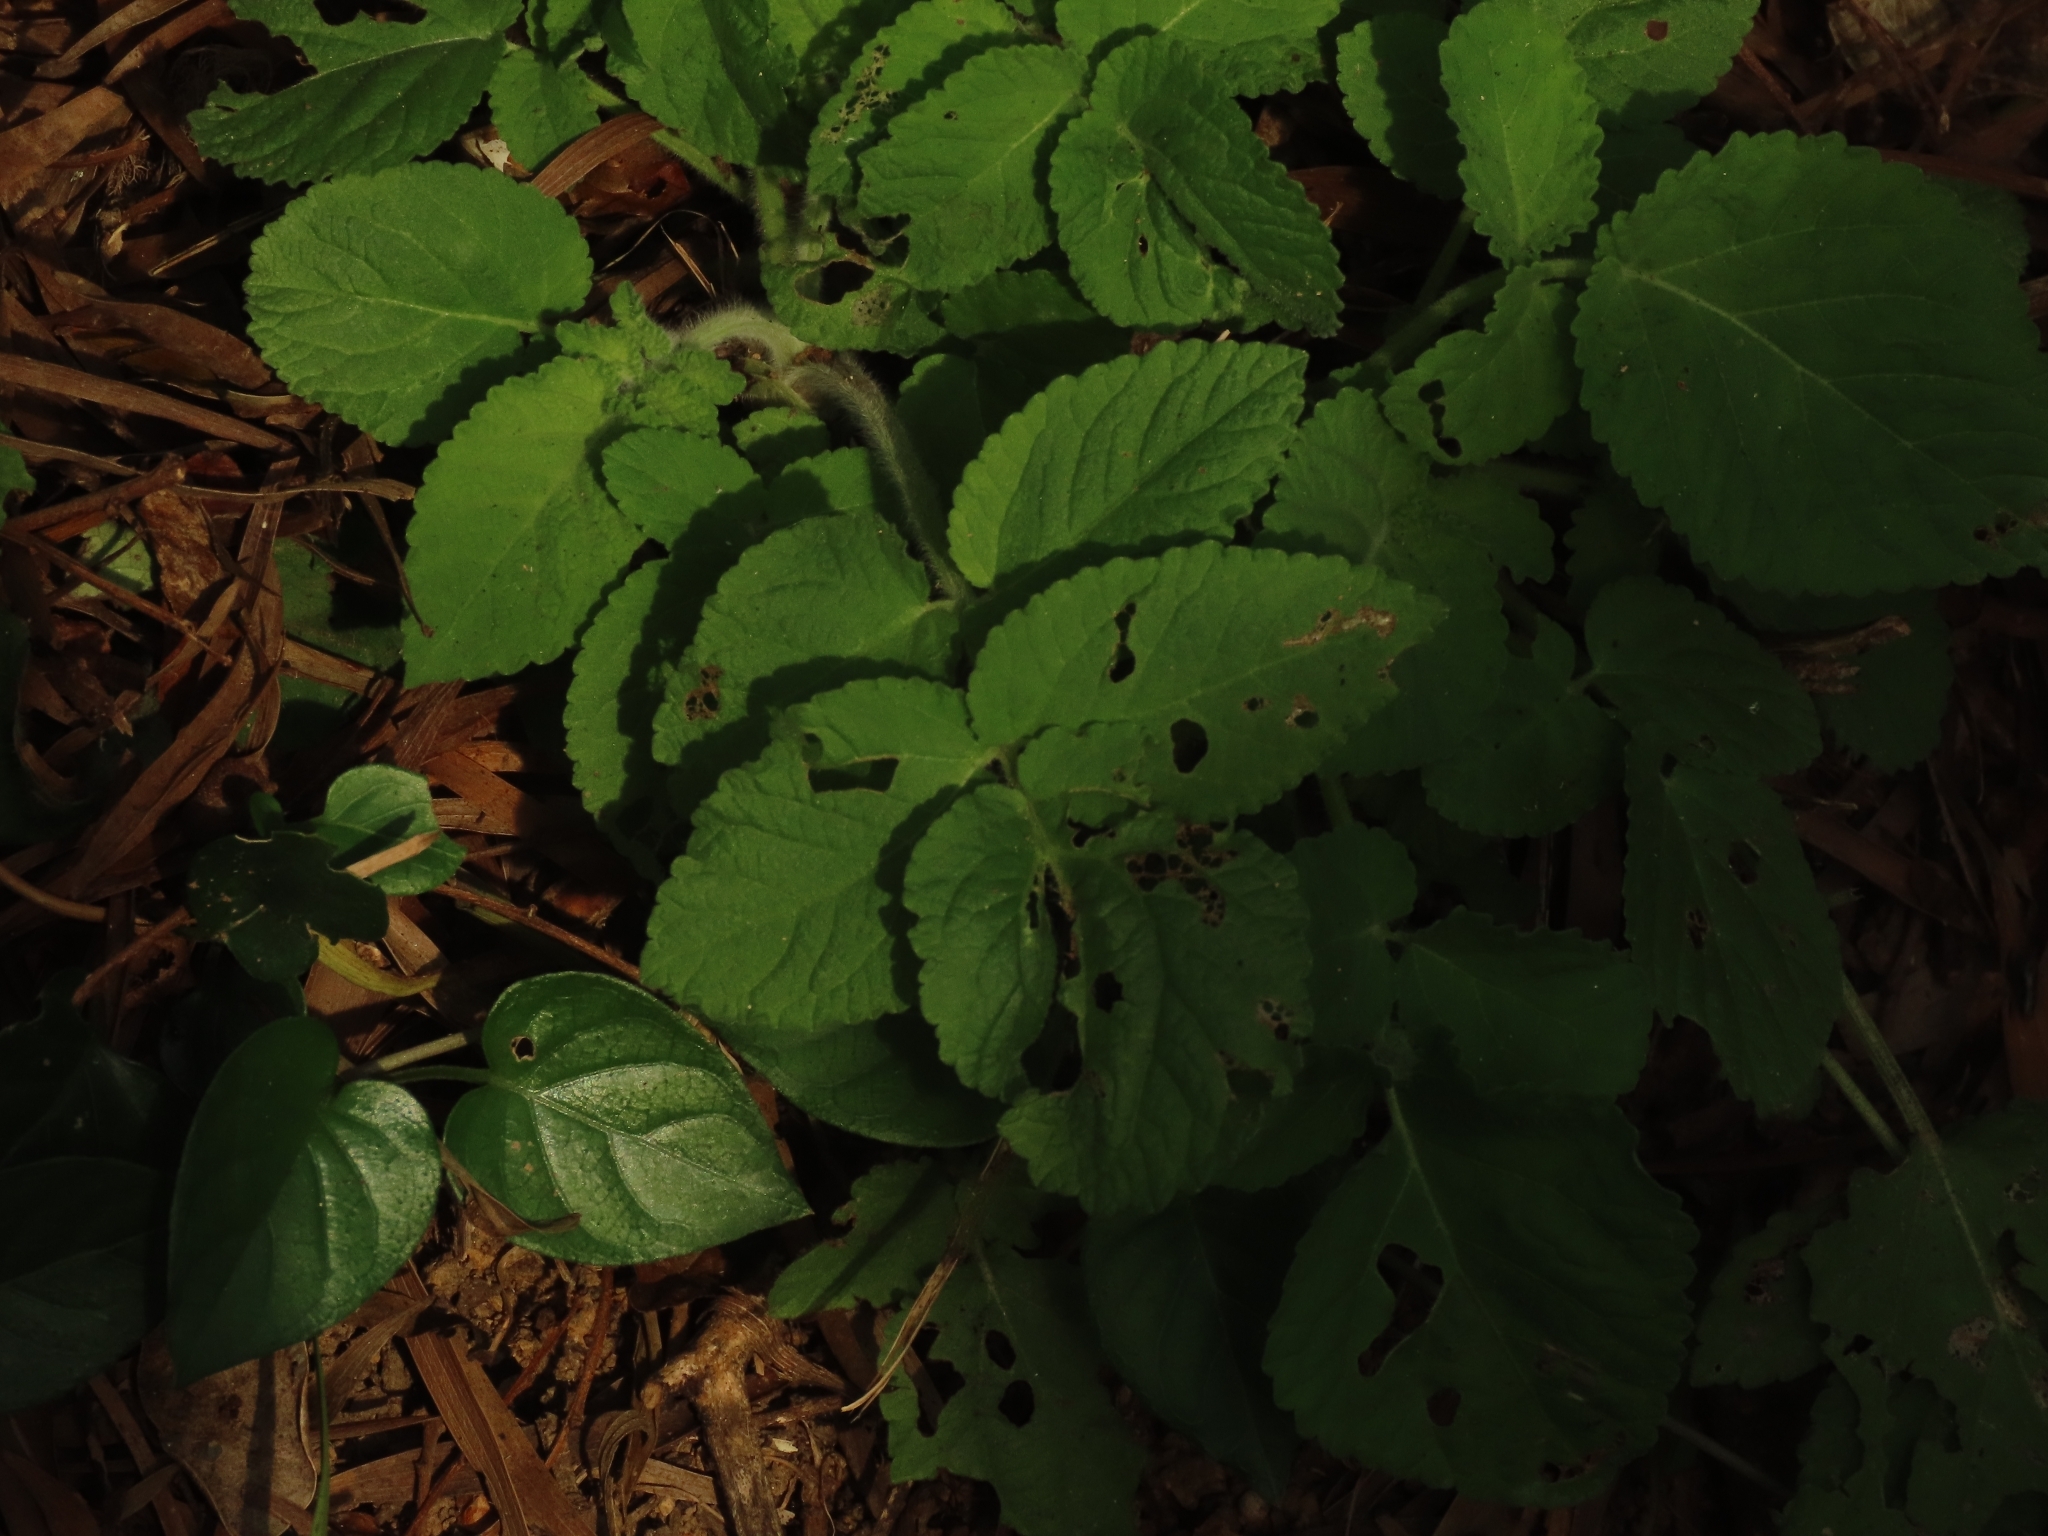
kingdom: Plantae
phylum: Tracheophyta
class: Magnoliopsida
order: Lamiales
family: Lamiaceae
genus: Salvia
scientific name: Salvia bowleyana
